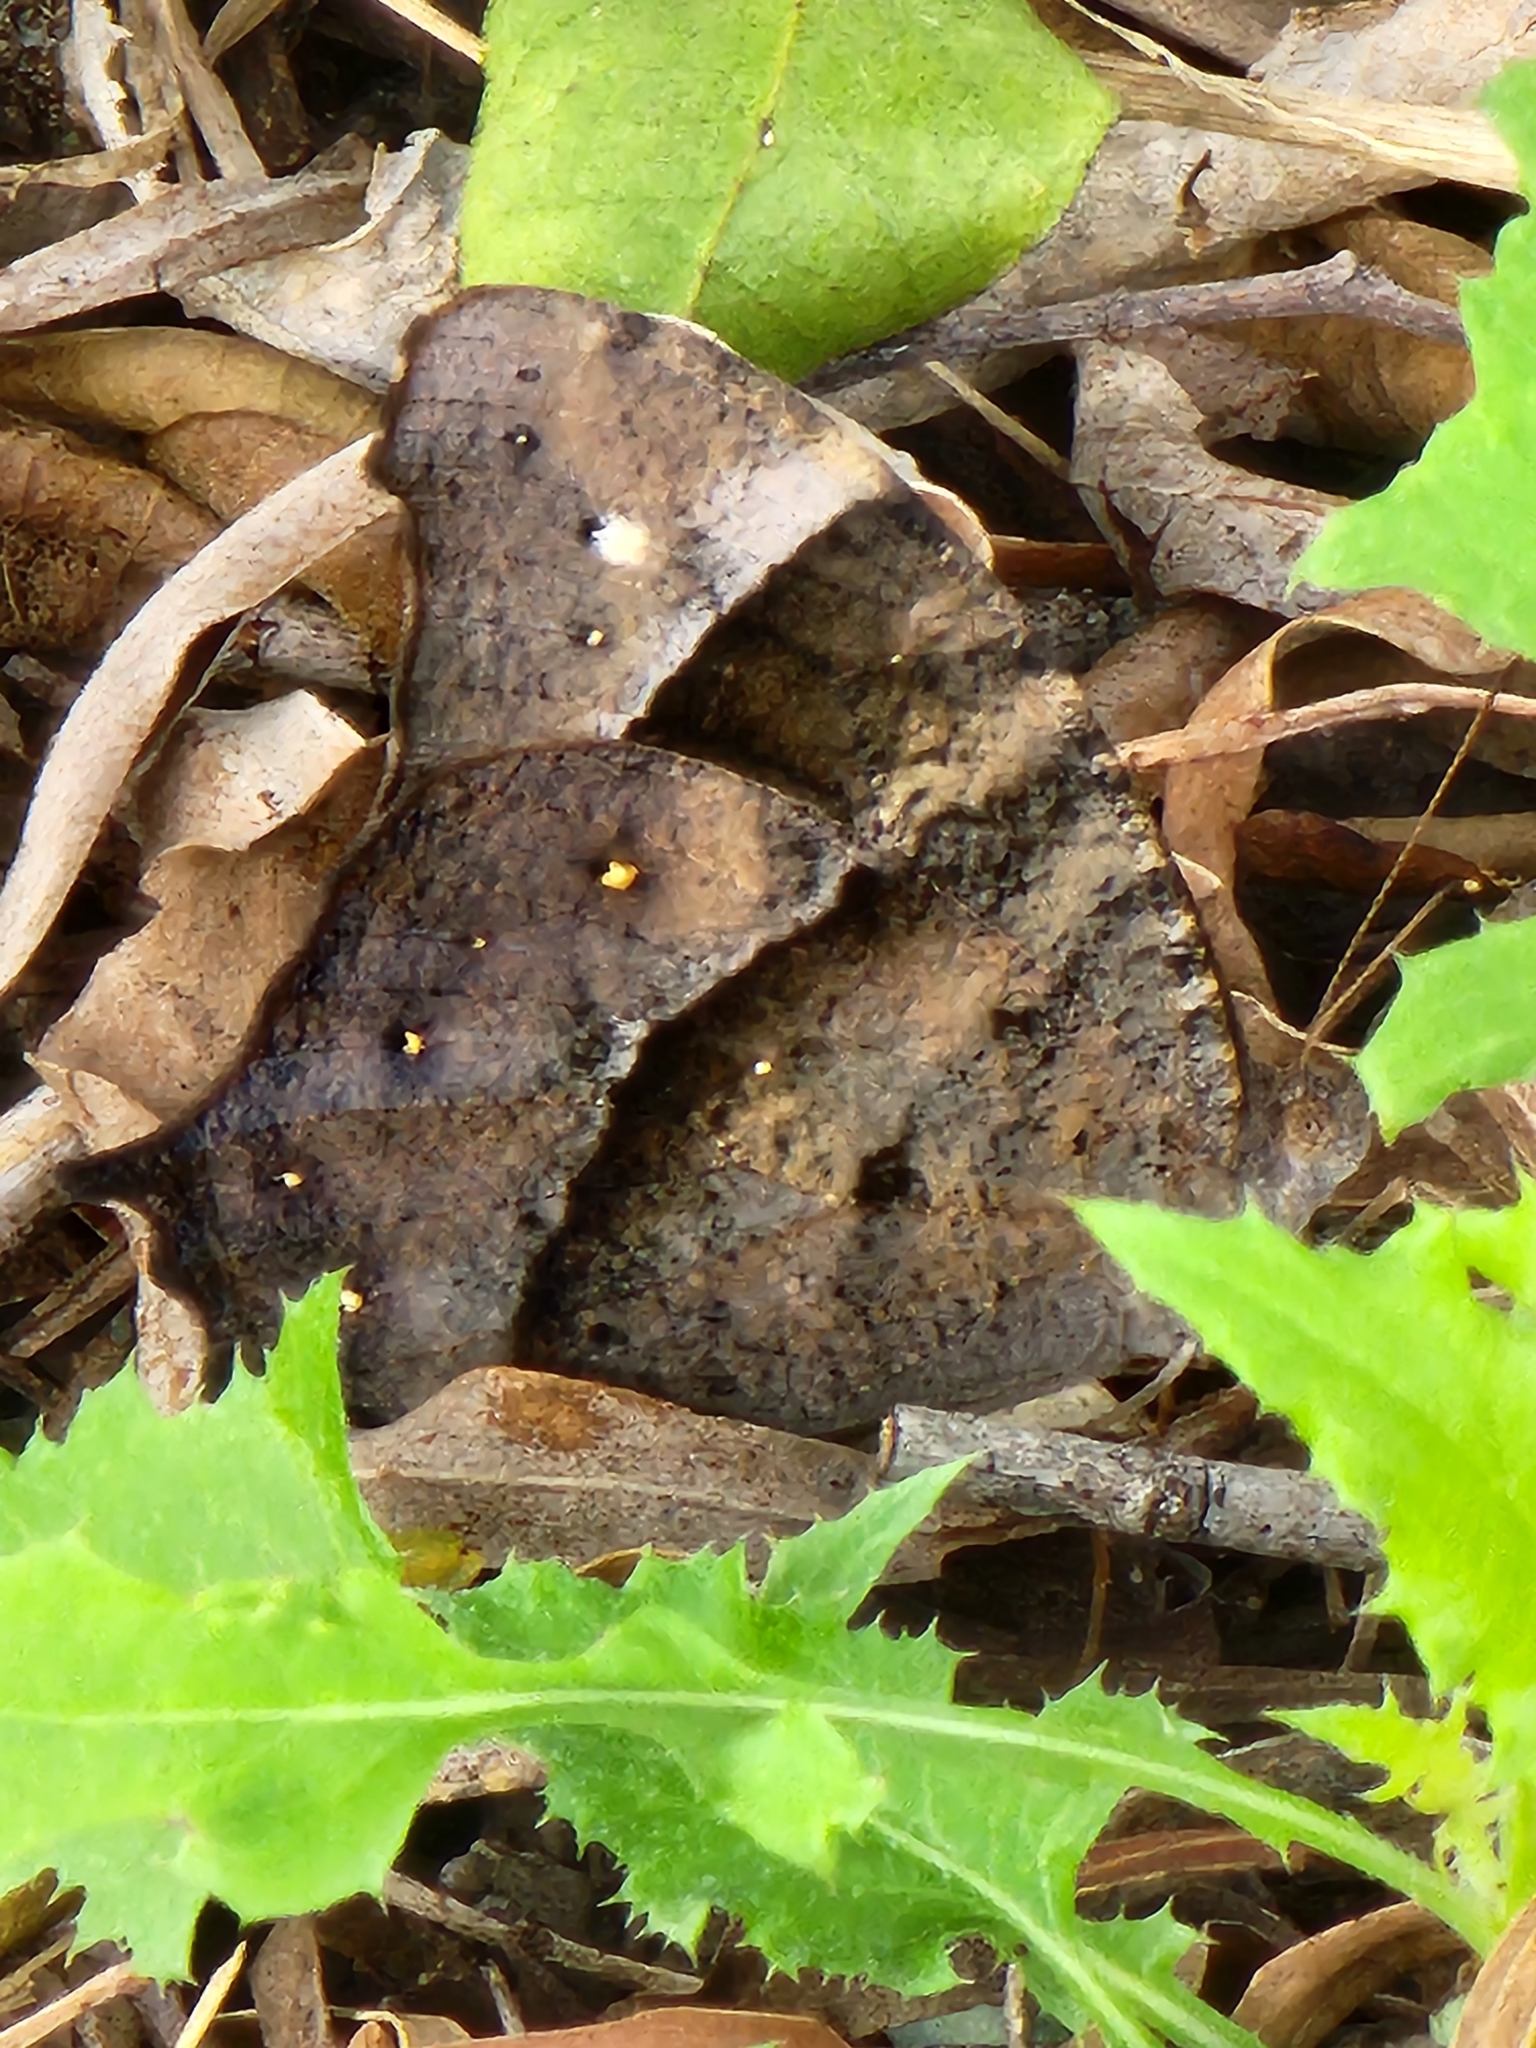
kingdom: Animalia
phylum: Arthropoda
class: Insecta
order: Lepidoptera
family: Nymphalidae
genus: Melanitis
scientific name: Melanitis leda
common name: Twilight brown
